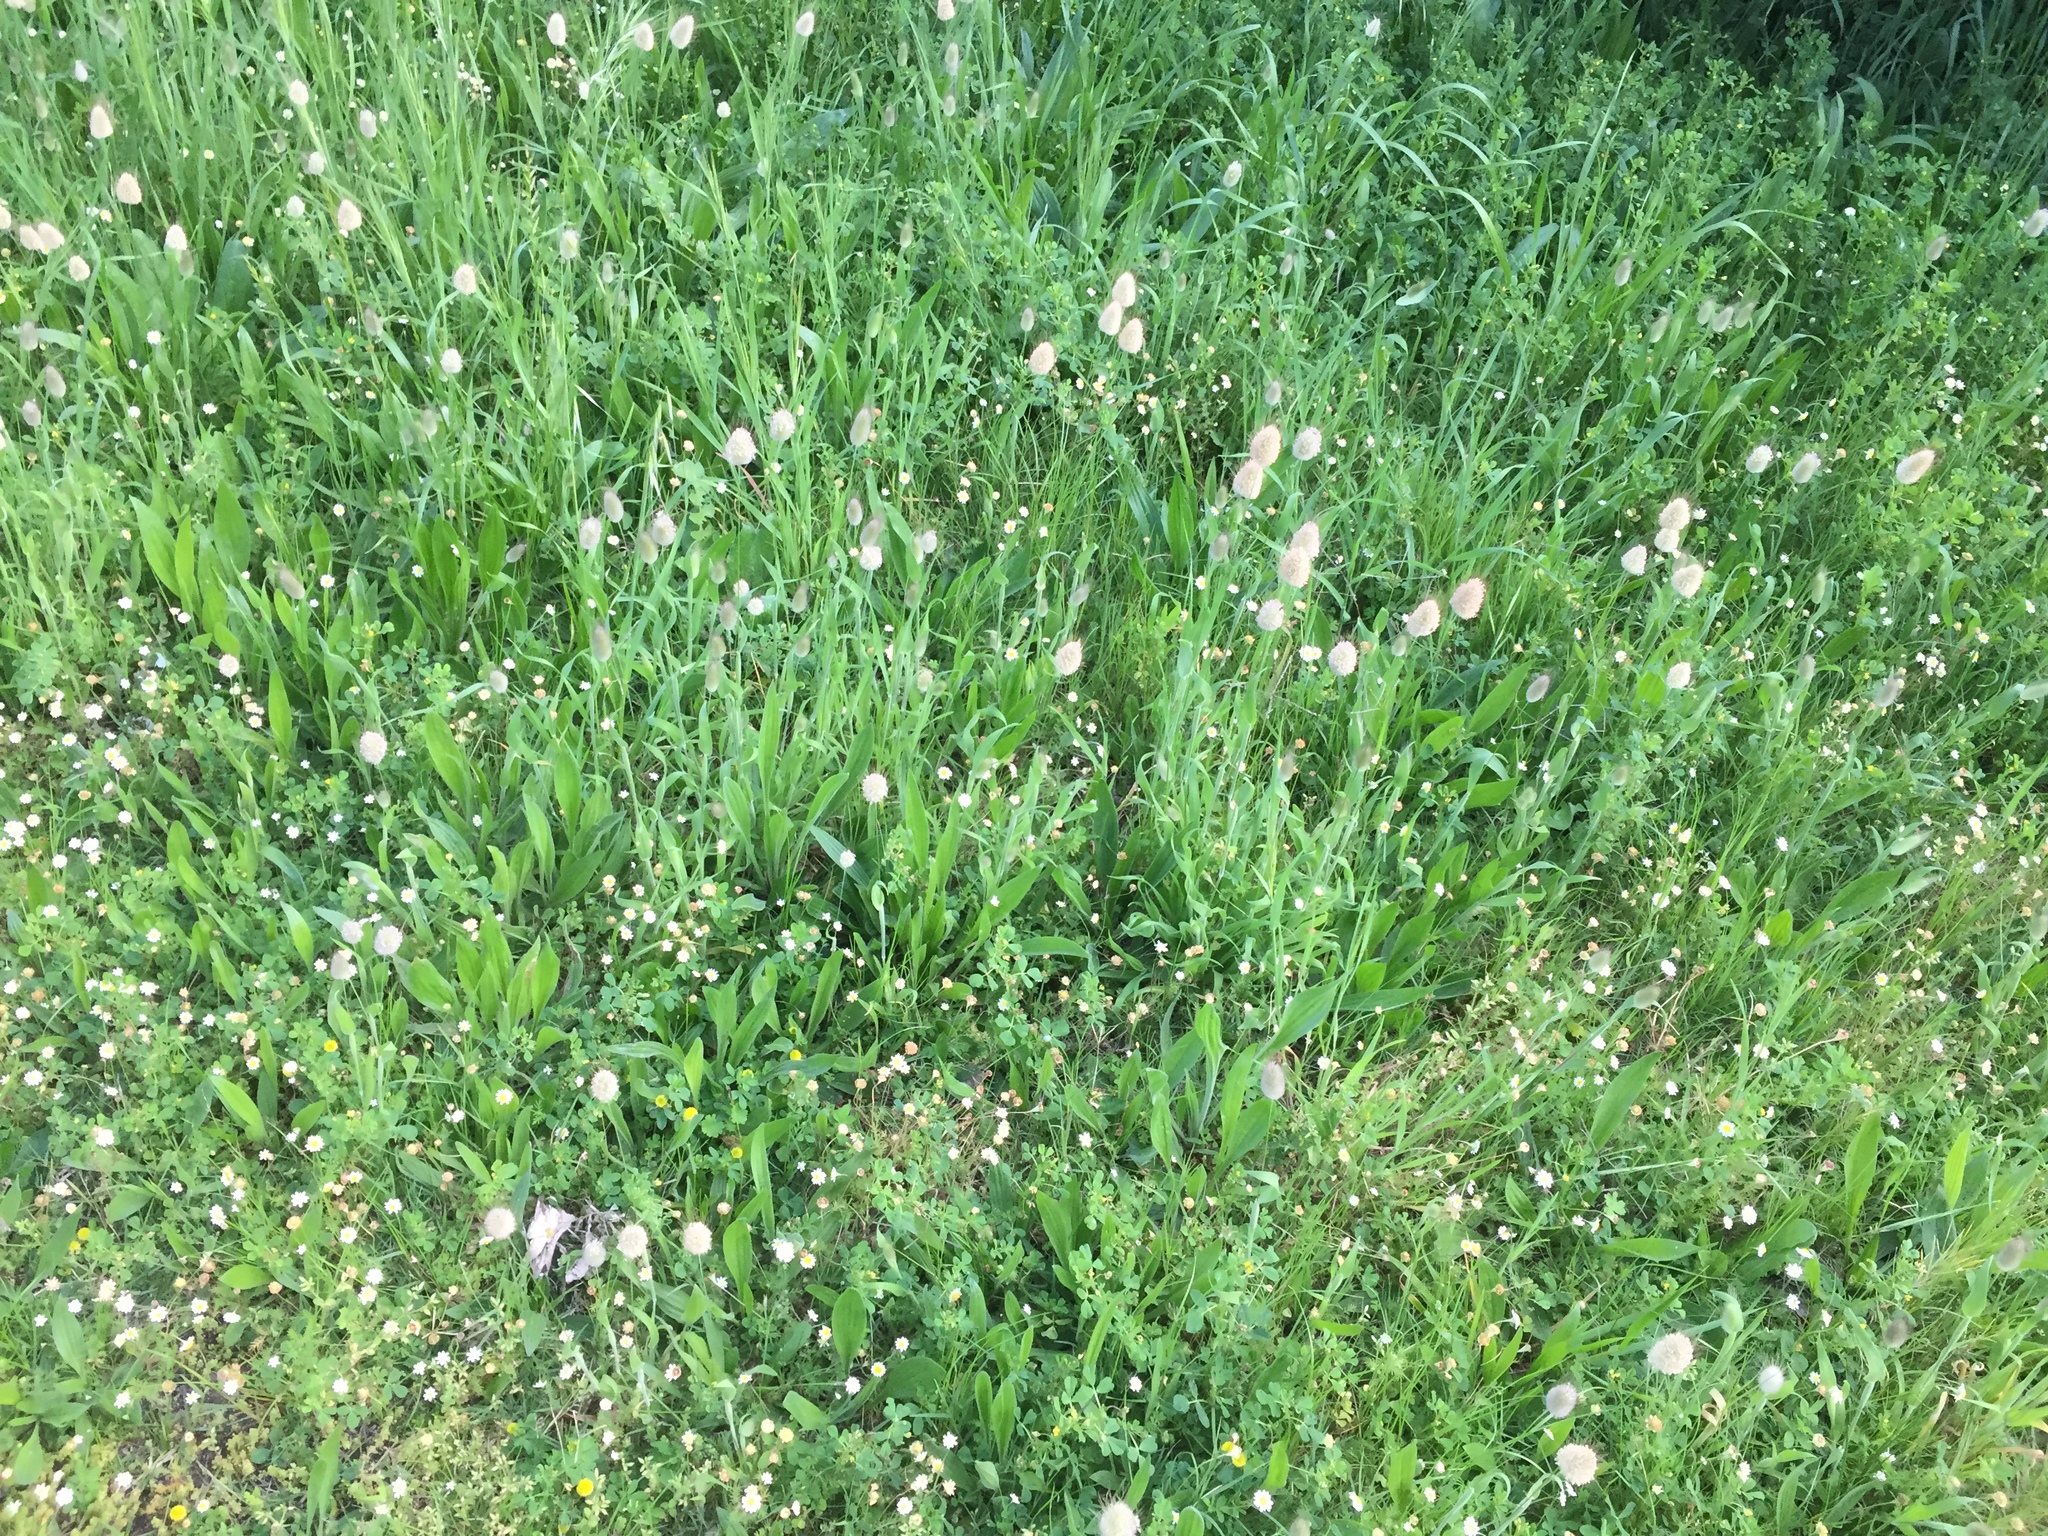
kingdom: Plantae
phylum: Tracheophyta
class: Magnoliopsida
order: Lamiales
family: Plantaginaceae
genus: Plantago
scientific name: Plantago lanceolata
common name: Ribwort plantain
